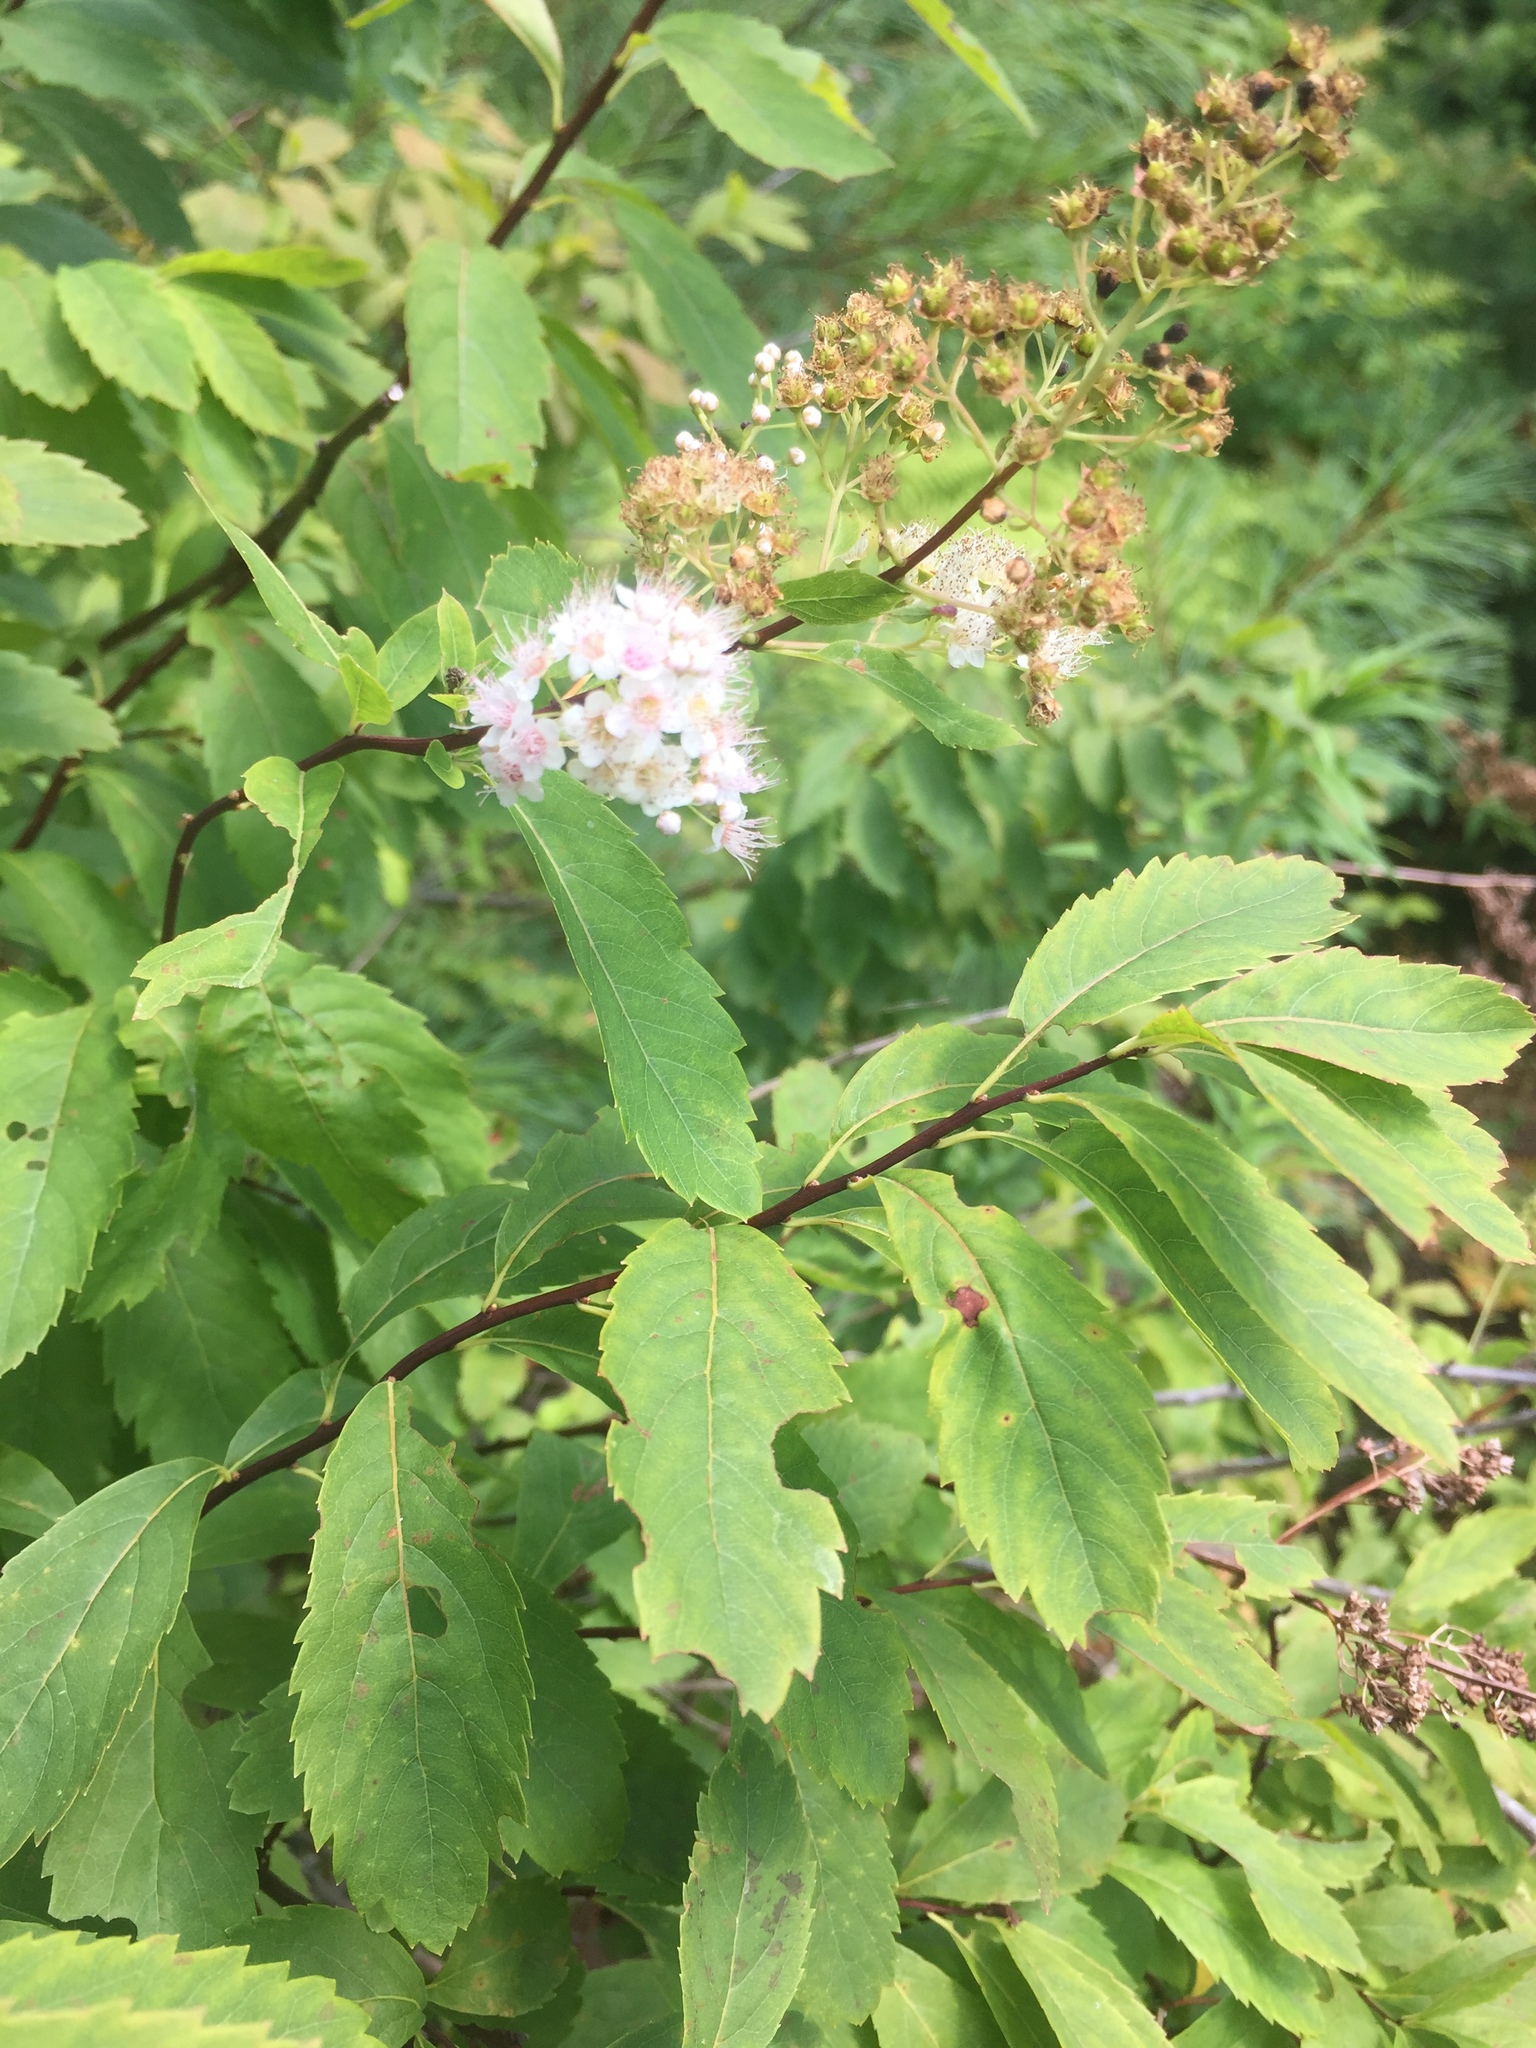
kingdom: Plantae
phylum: Tracheophyta
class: Magnoliopsida
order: Rosales
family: Rosaceae
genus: Spiraea
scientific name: Spiraea alba
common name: Pale bridewort
